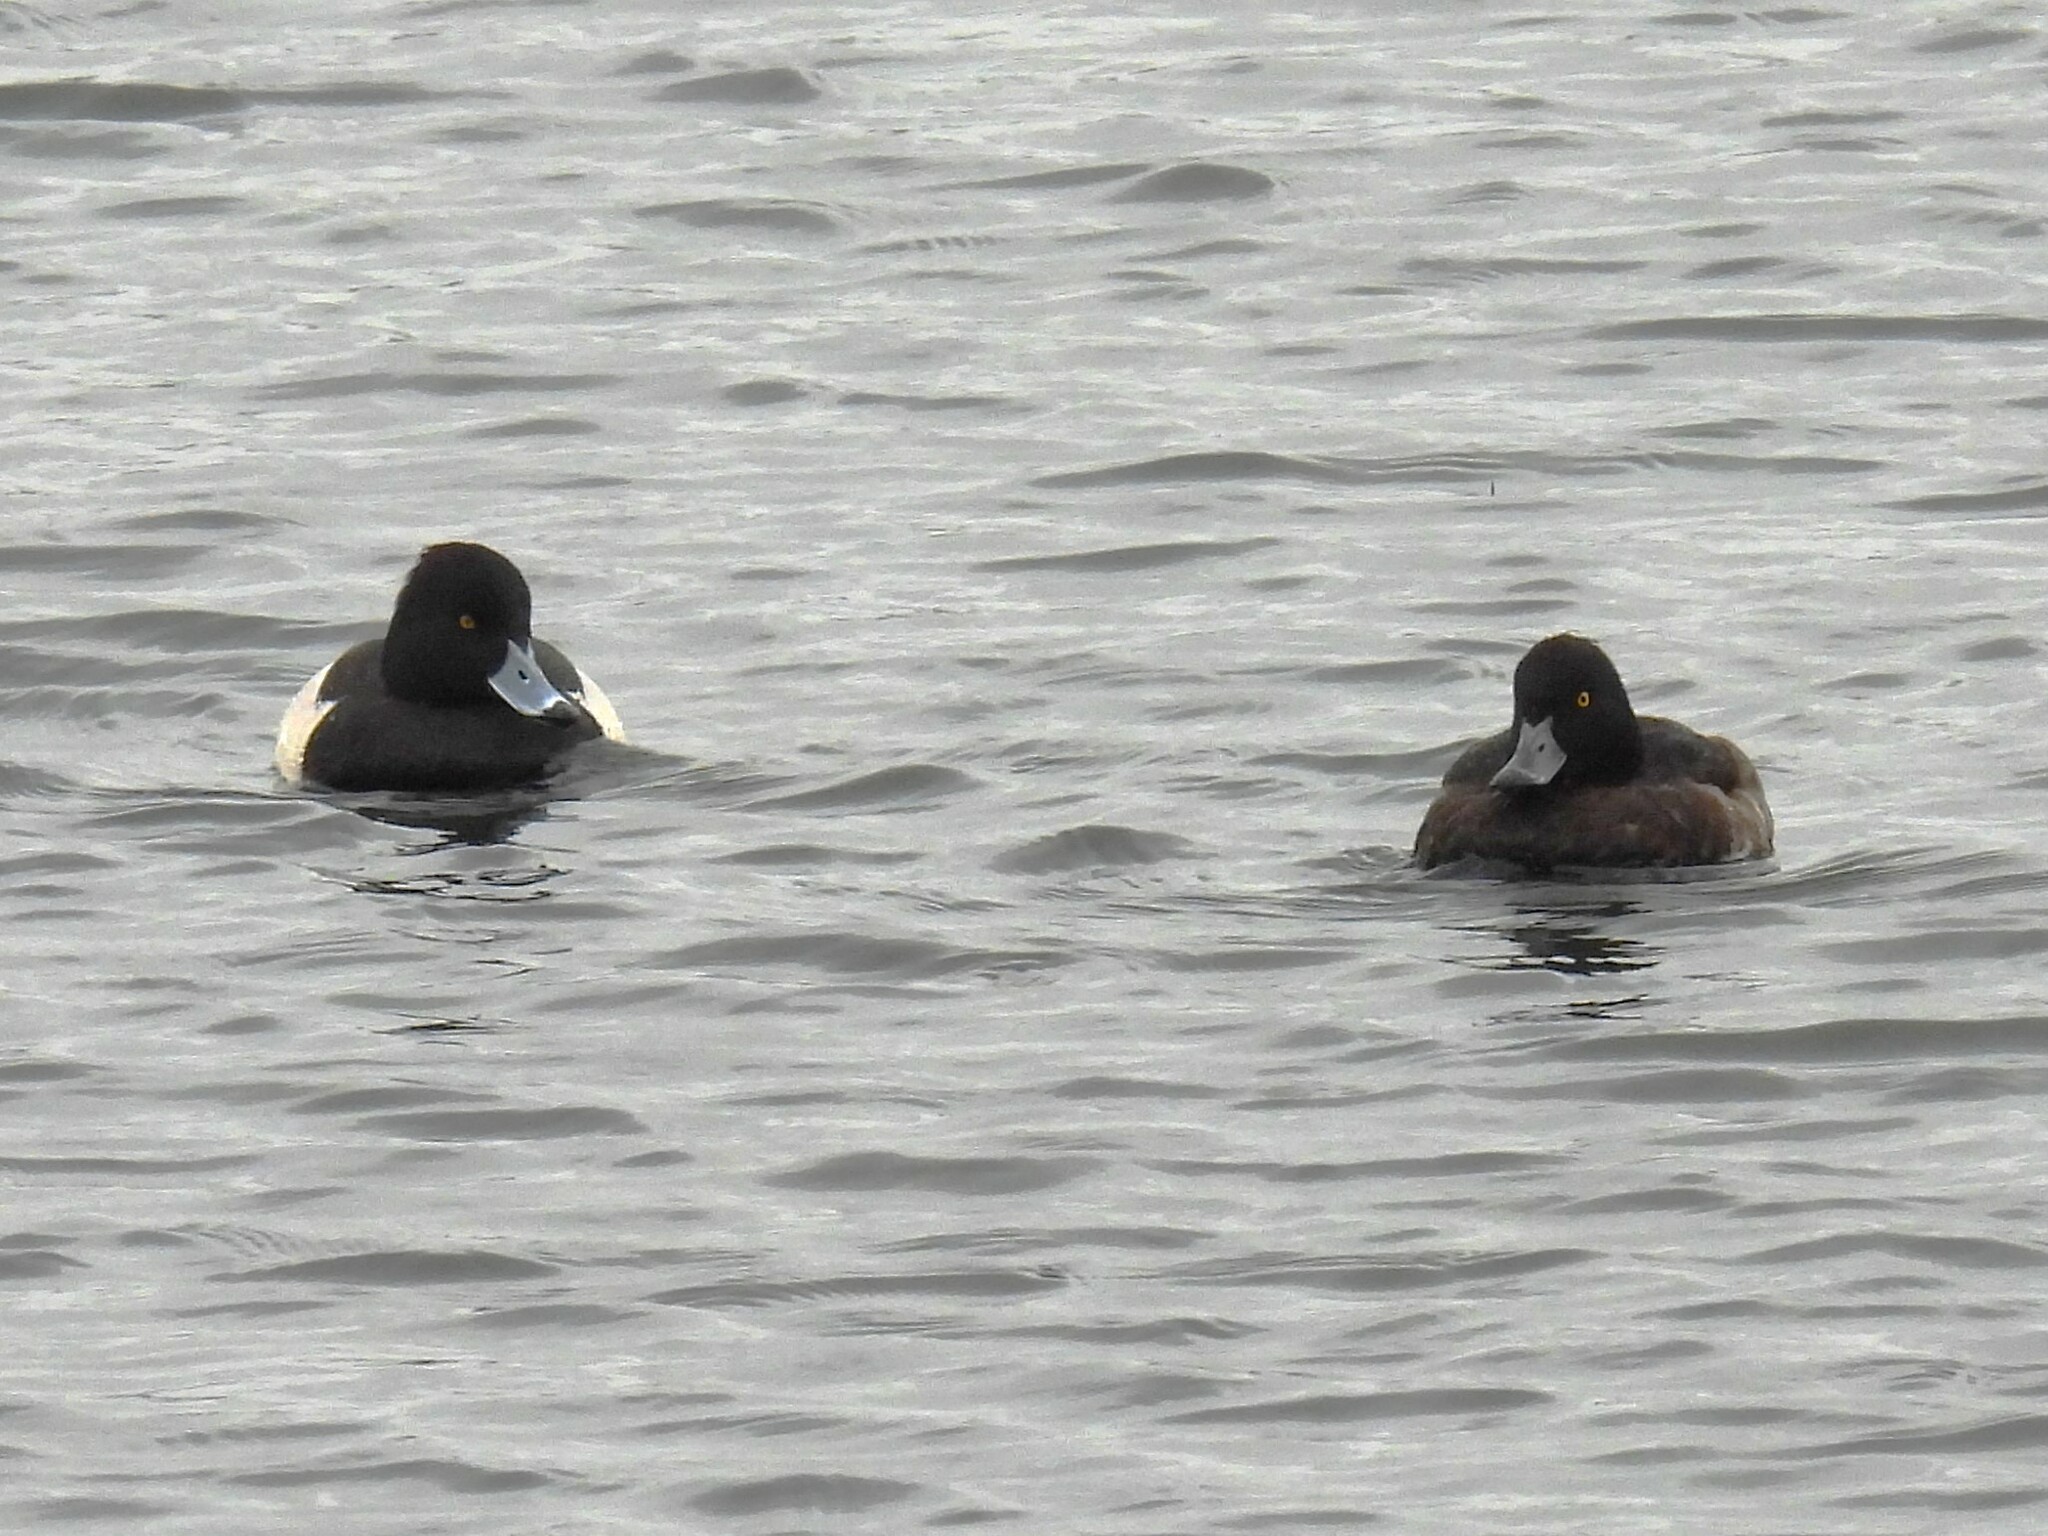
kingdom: Animalia
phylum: Chordata
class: Aves
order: Anseriformes
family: Anatidae
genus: Aythya
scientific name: Aythya fuligula
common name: Tufted duck
